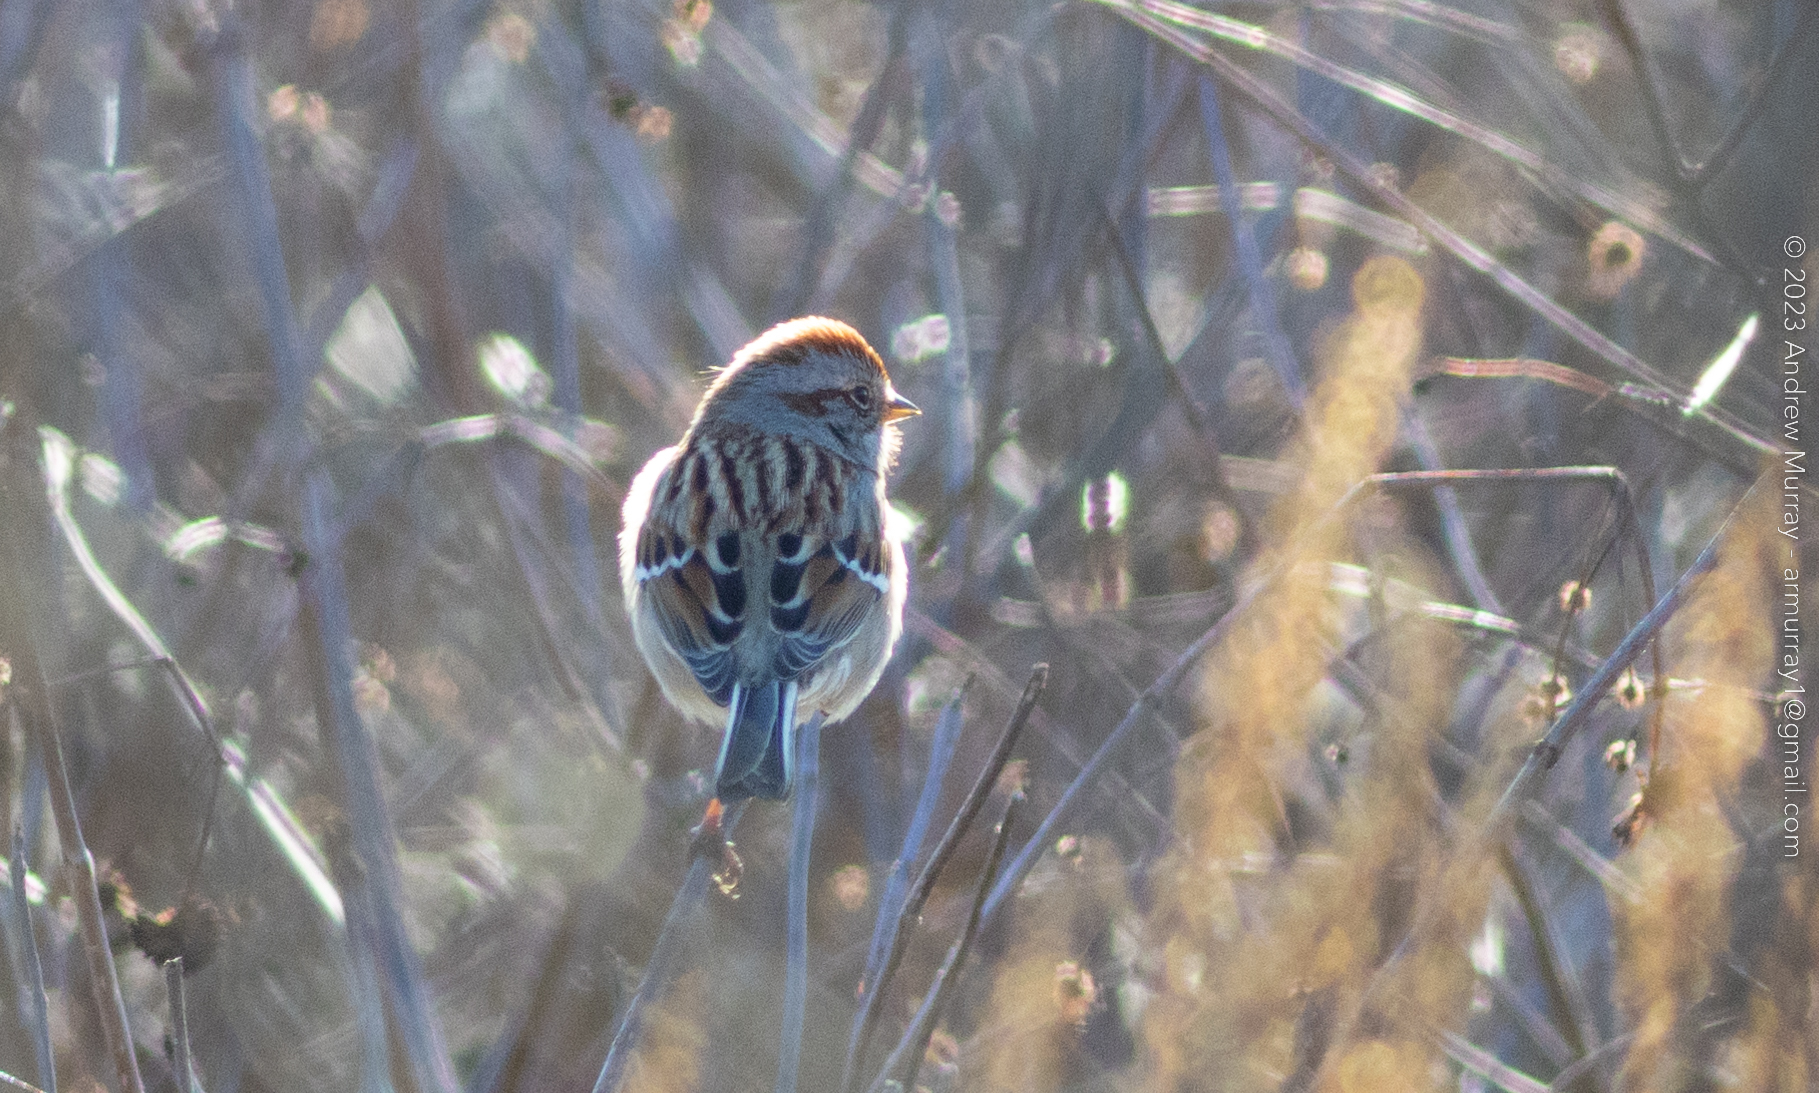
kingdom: Animalia
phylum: Chordata
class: Aves
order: Passeriformes
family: Passerellidae
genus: Spizelloides
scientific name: Spizelloides arborea
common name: American tree sparrow
